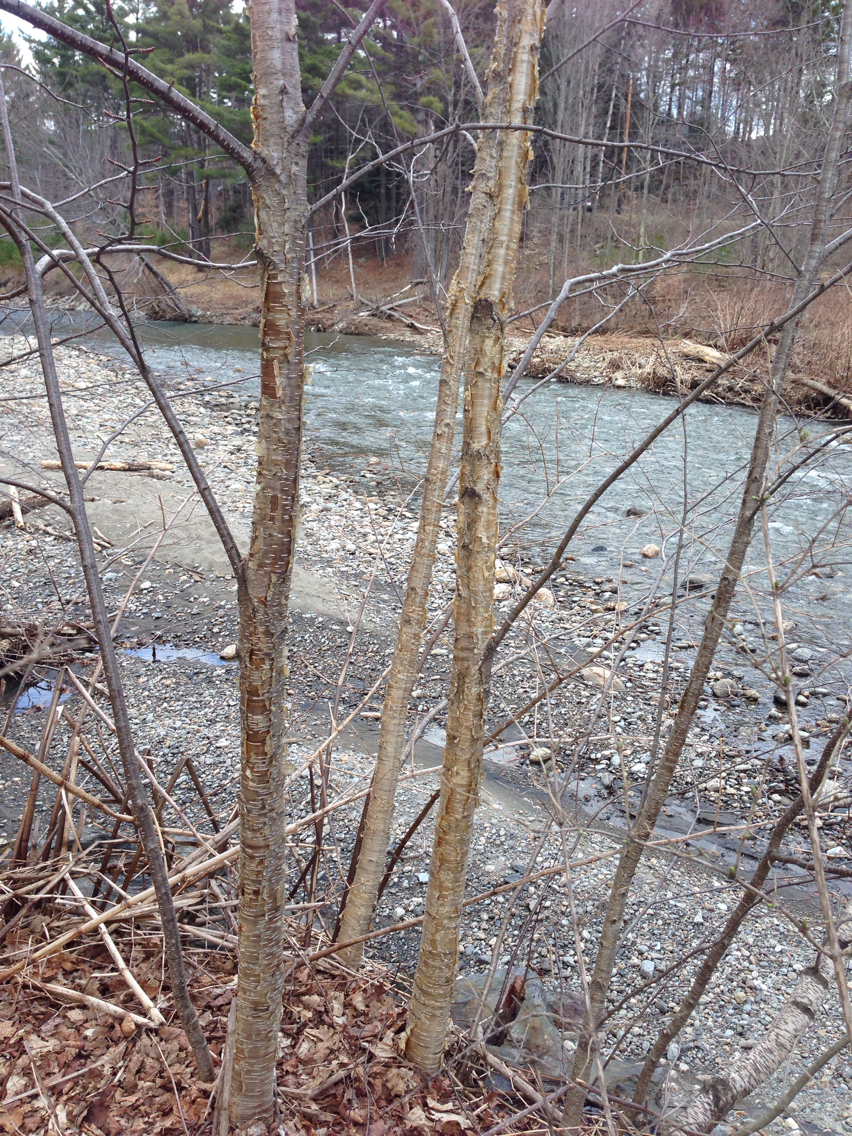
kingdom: Plantae
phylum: Tracheophyta
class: Magnoliopsida
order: Fagales
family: Betulaceae
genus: Betula
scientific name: Betula alleghaniensis
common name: Yellow birch
